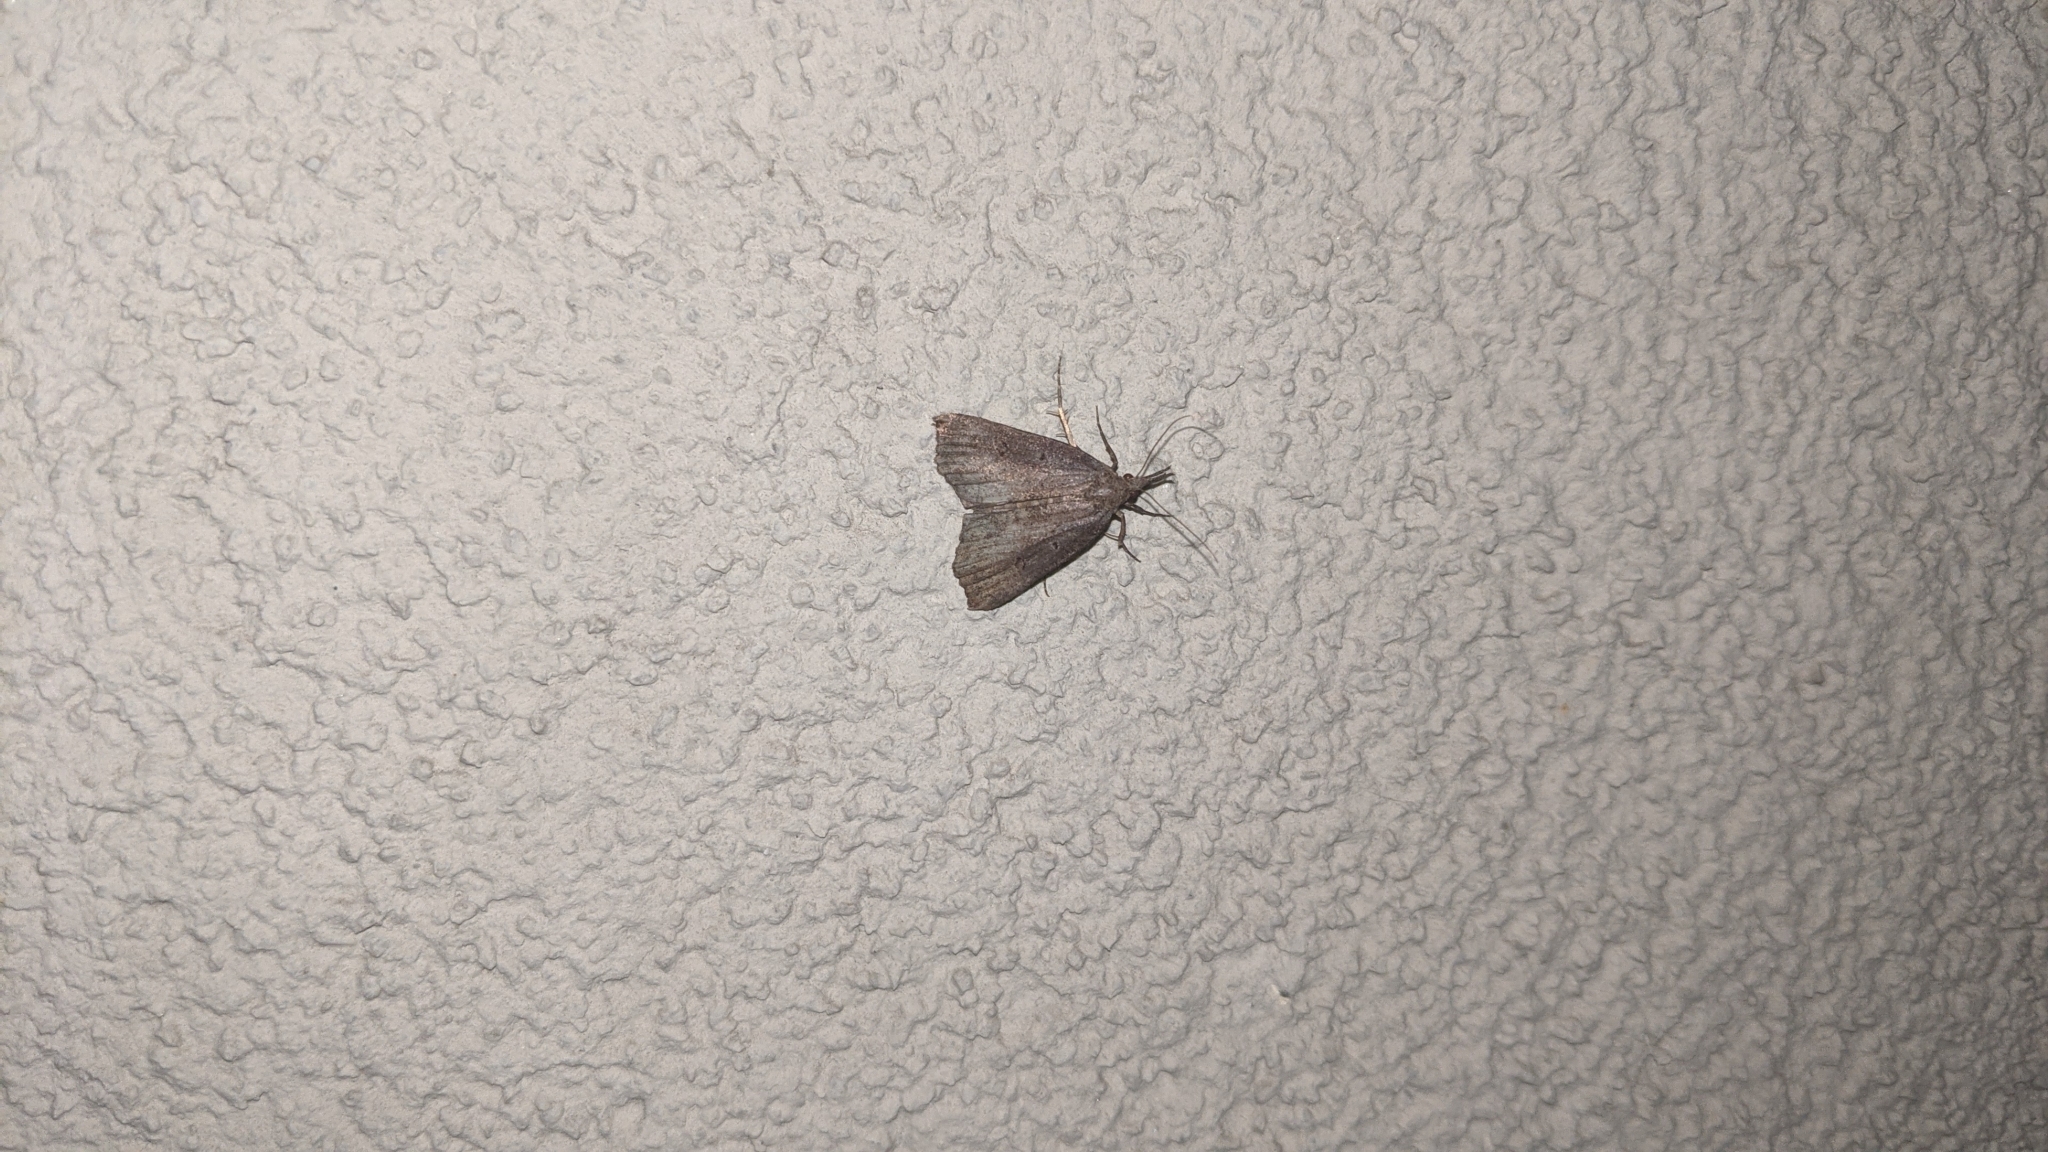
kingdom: Animalia
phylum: Arthropoda
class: Insecta
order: Lepidoptera
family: Erebidae
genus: Hypena
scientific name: Hypena rostralis
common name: Buttoned snout
